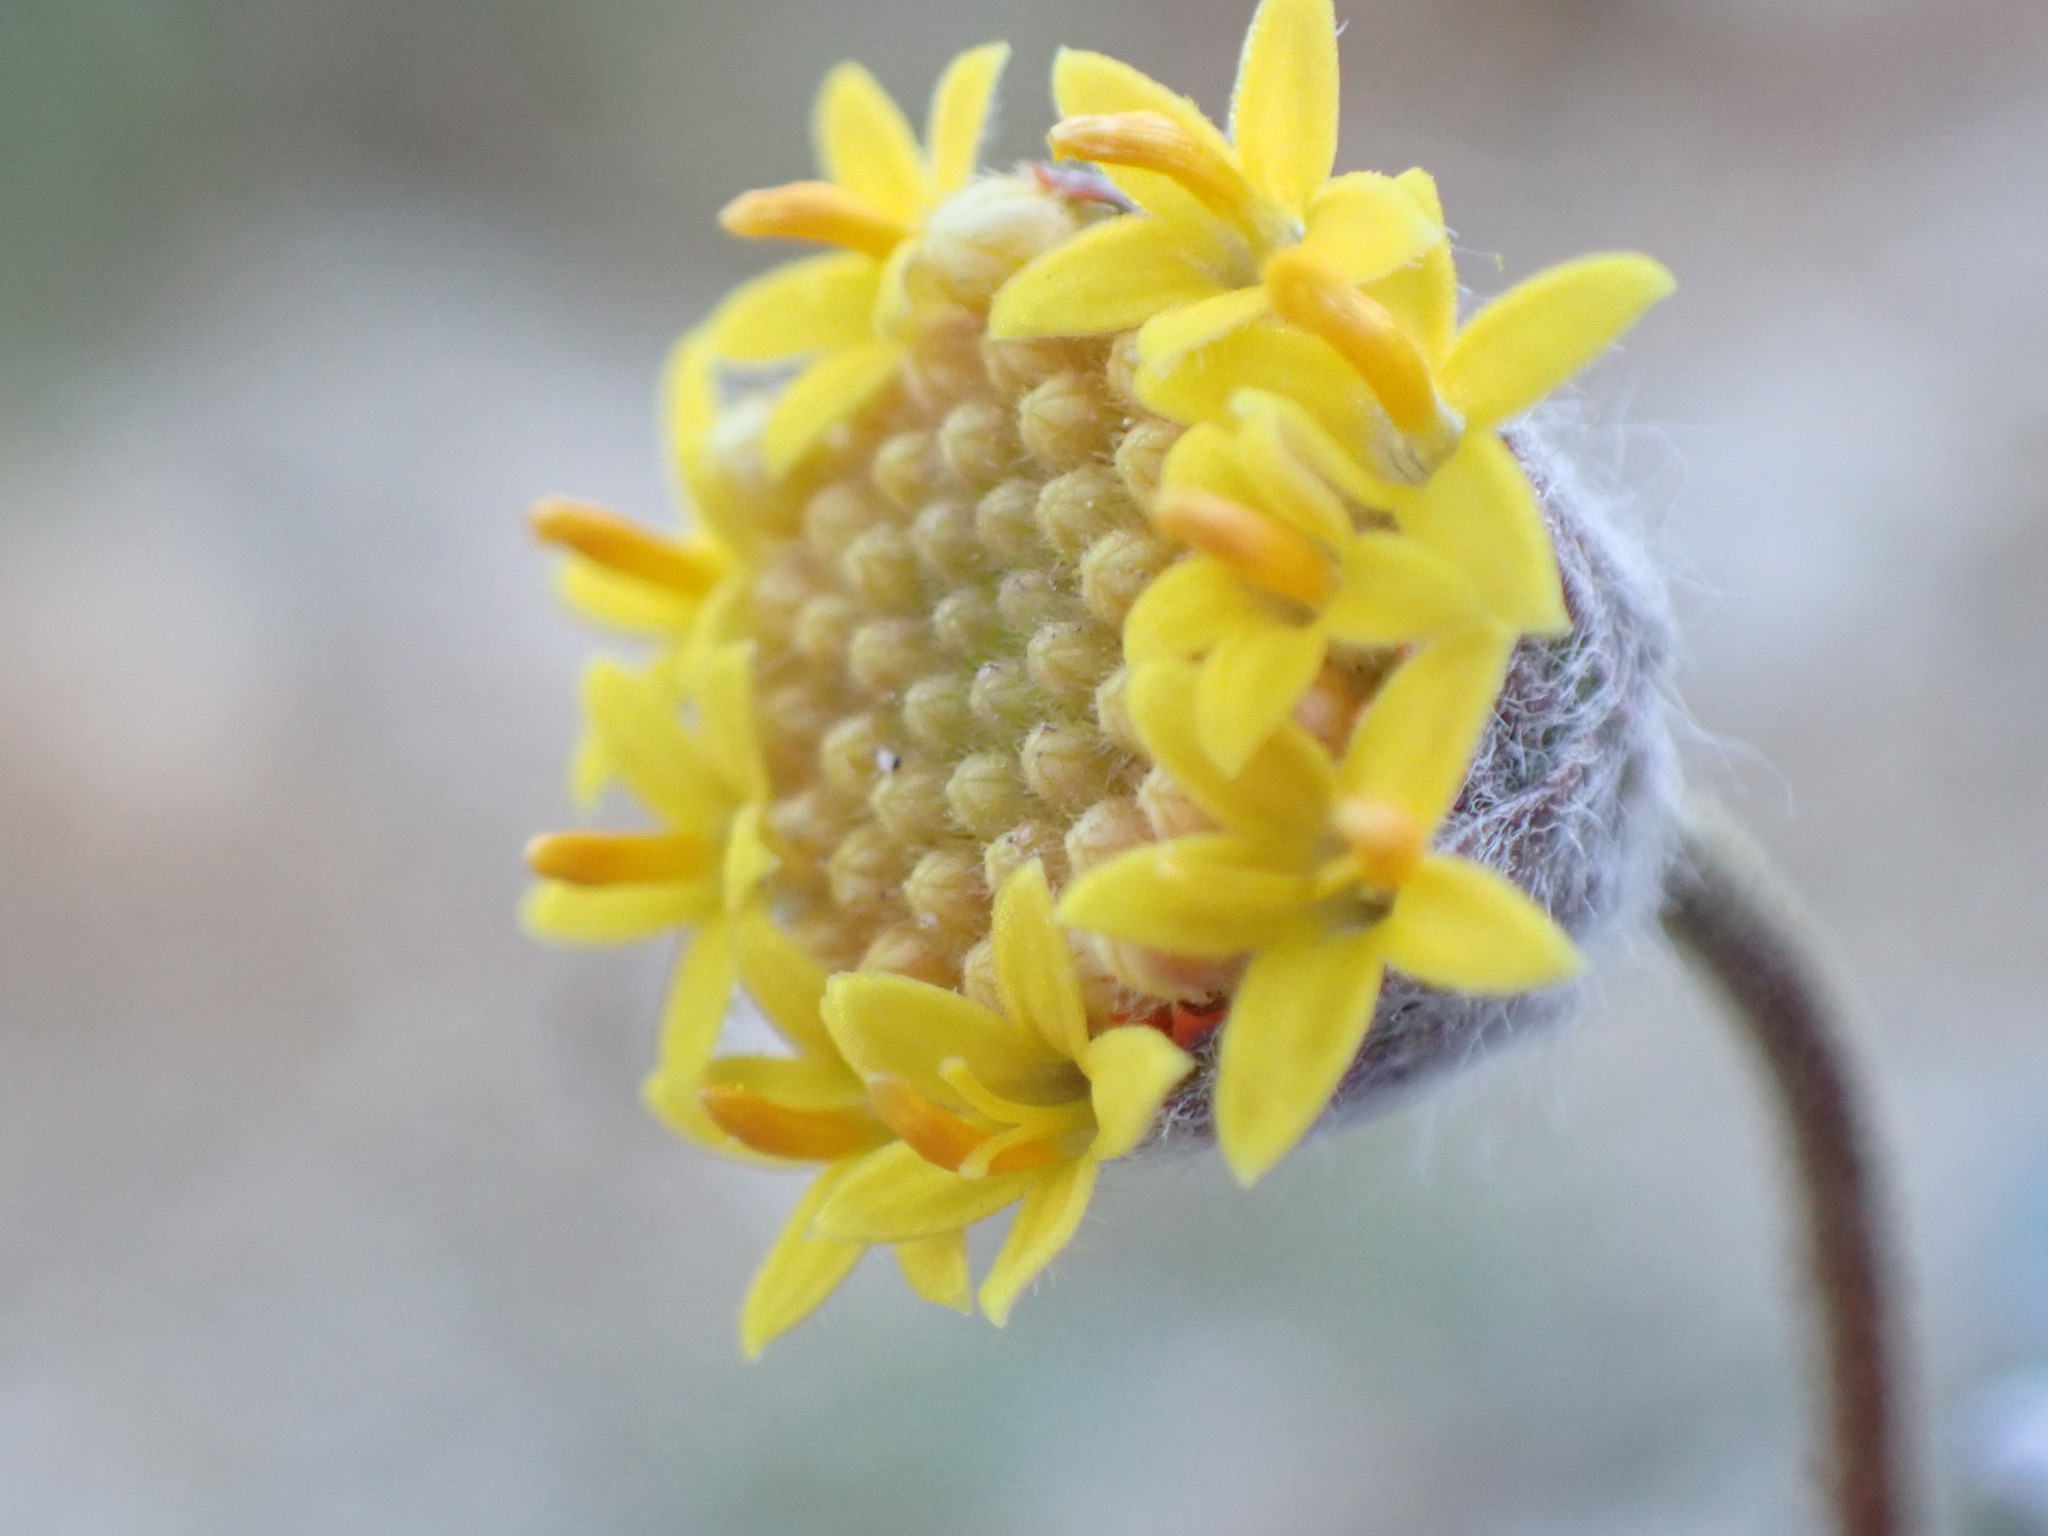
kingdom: Plantae
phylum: Tracheophyta
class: Magnoliopsida
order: Asterales
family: Asteraceae
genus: Trichoptilium
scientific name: Trichoptilium incisum
